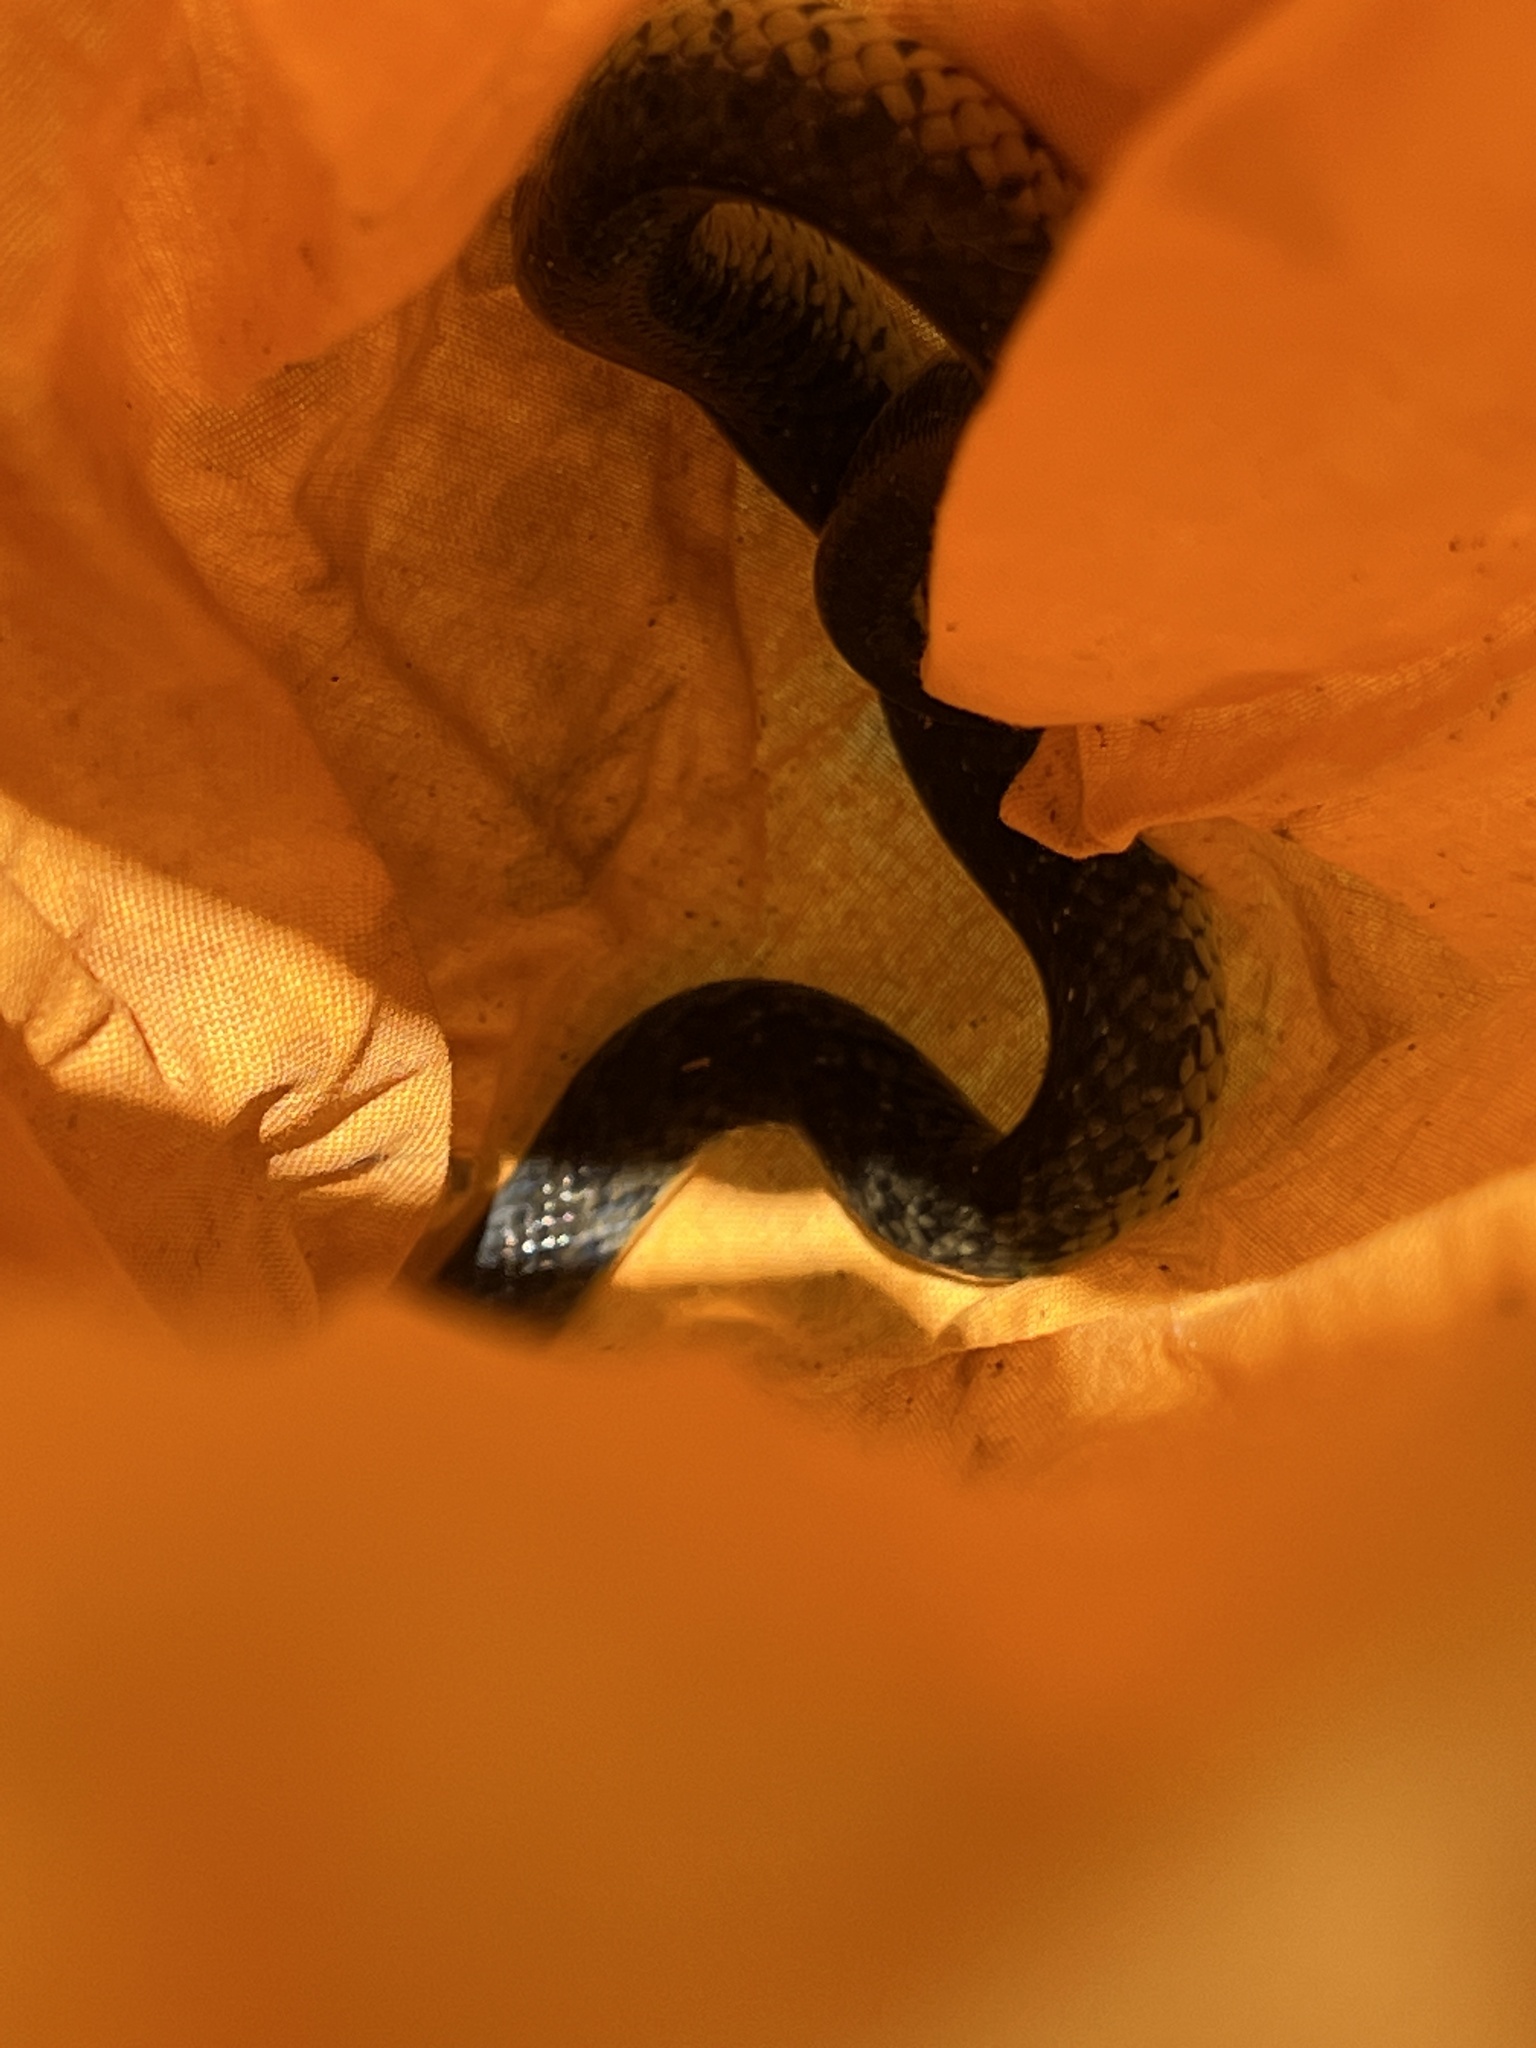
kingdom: Animalia
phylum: Chordata
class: Squamata
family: Colubridae
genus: Erythrolamprus
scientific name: Erythrolamprus poecilogyrus
